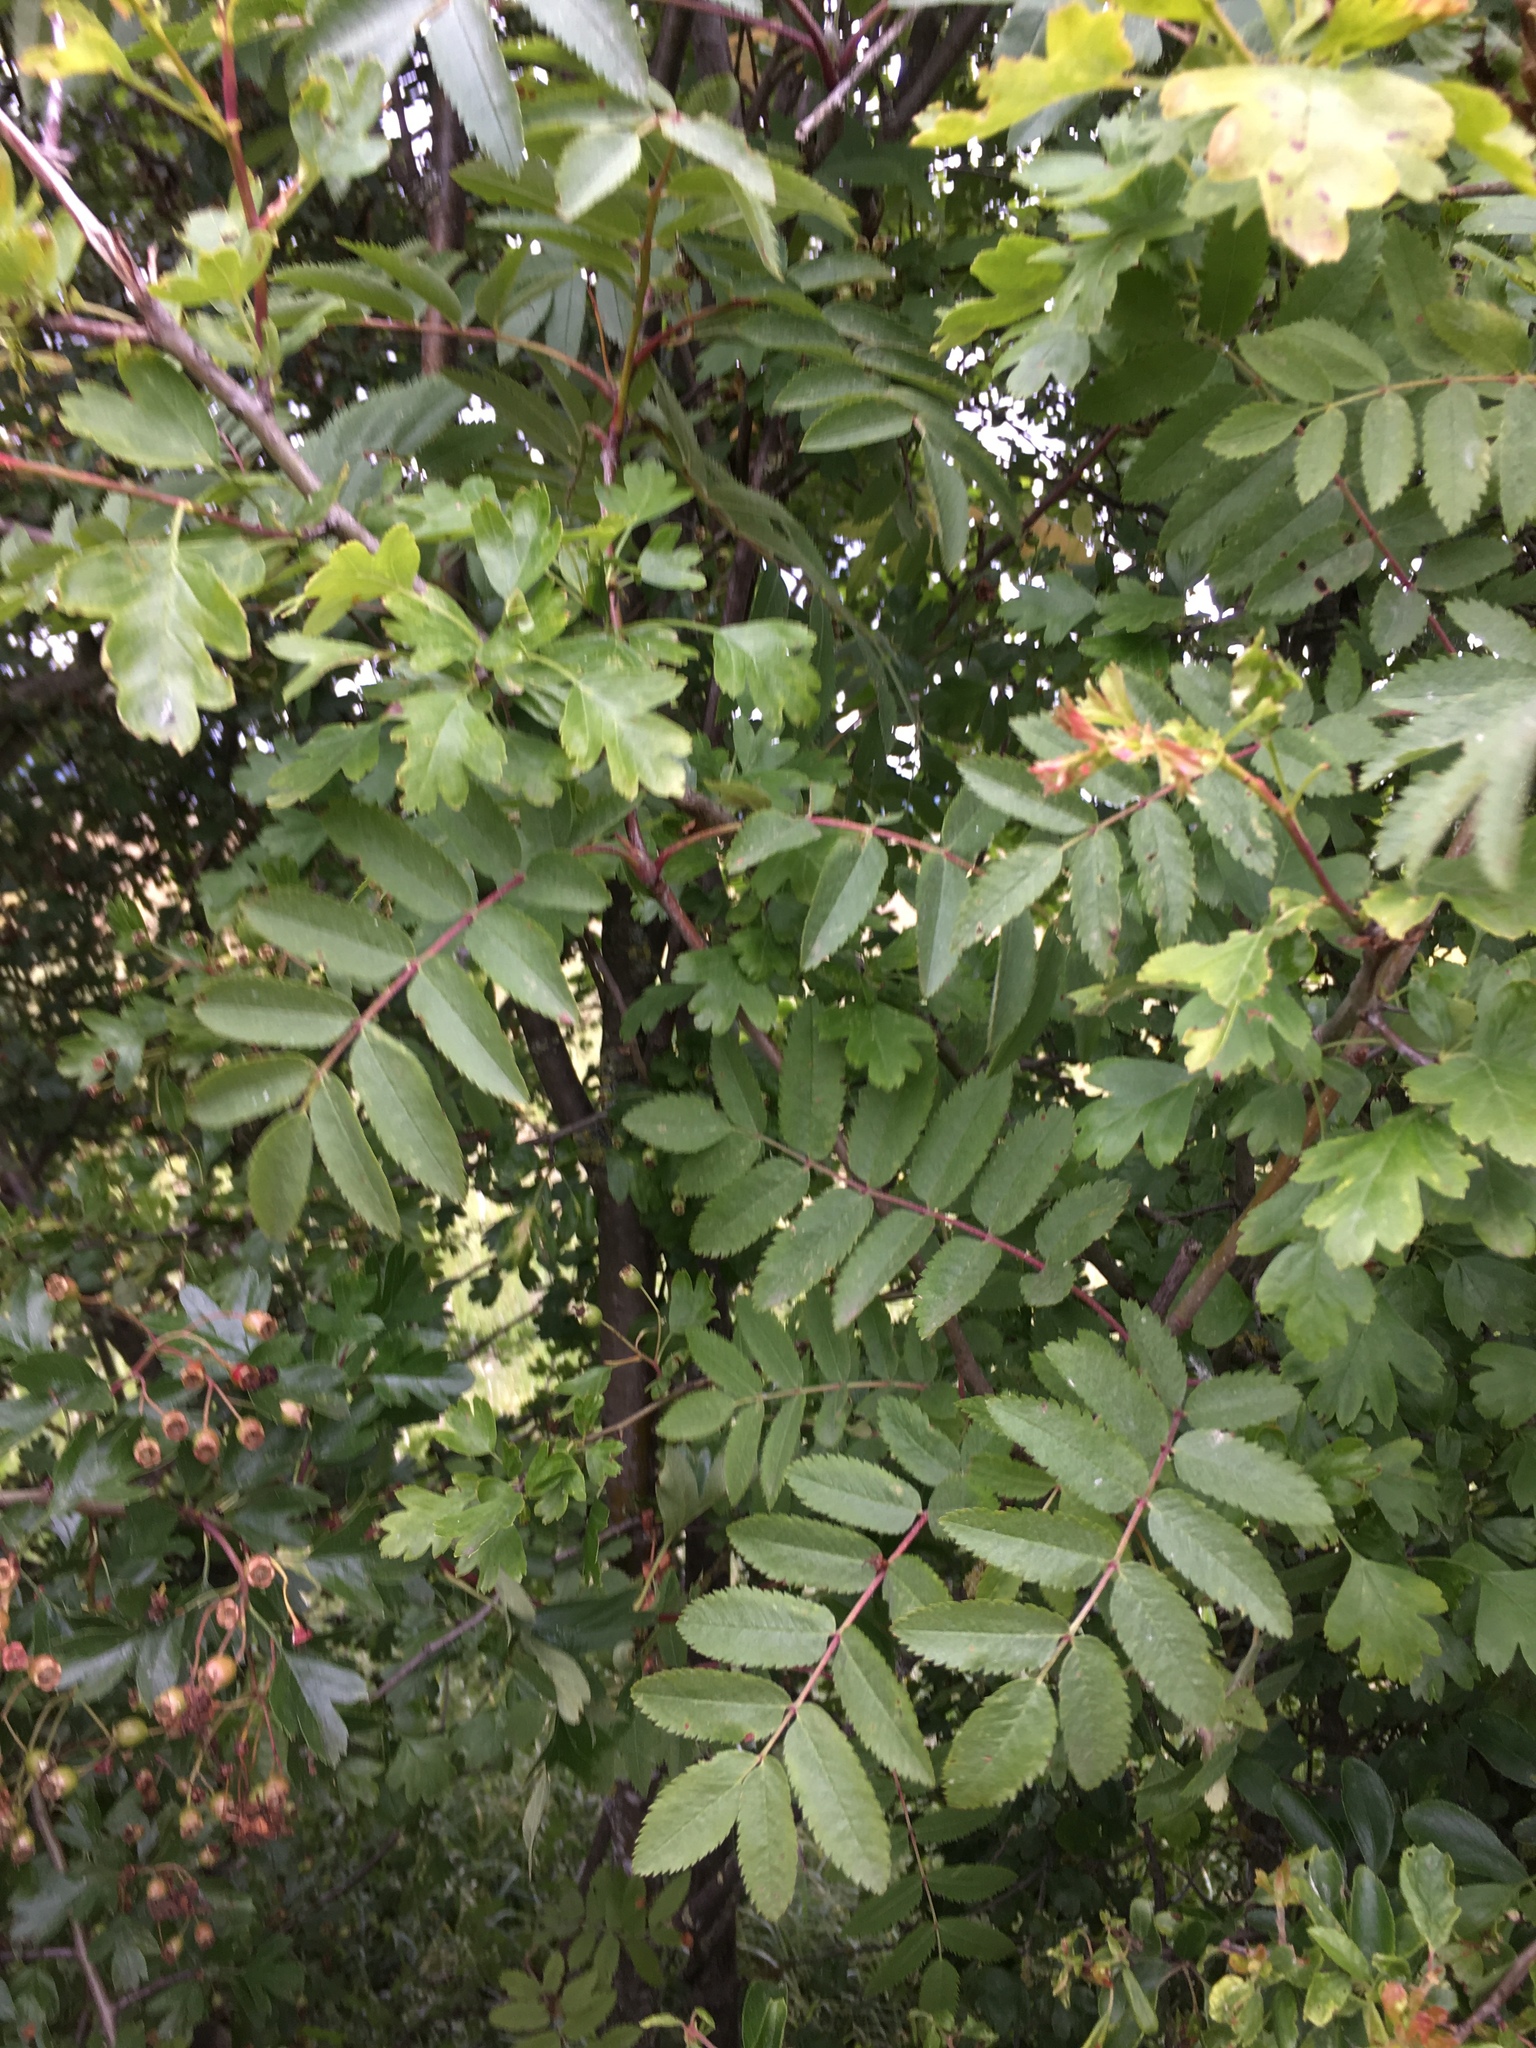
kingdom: Plantae
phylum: Tracheophyta
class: Magnoliopsida
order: Rosales
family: Rosaceae
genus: Sorbus
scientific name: Sorbus aucuparia
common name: Rowan
